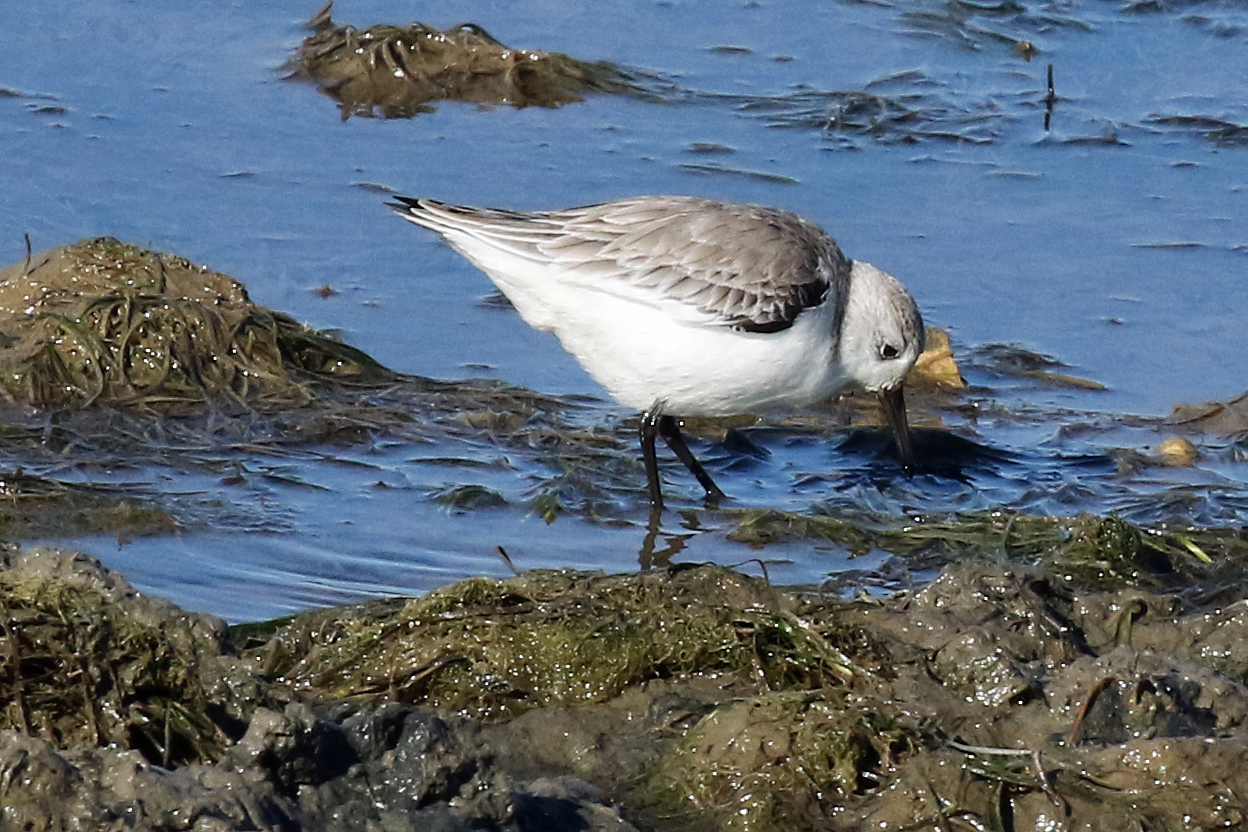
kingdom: Animalia
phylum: Chordata
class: Aves
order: Charadriiformes
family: Scolopacidae
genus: Calidris
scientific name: Calidris alba
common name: Sanderling
